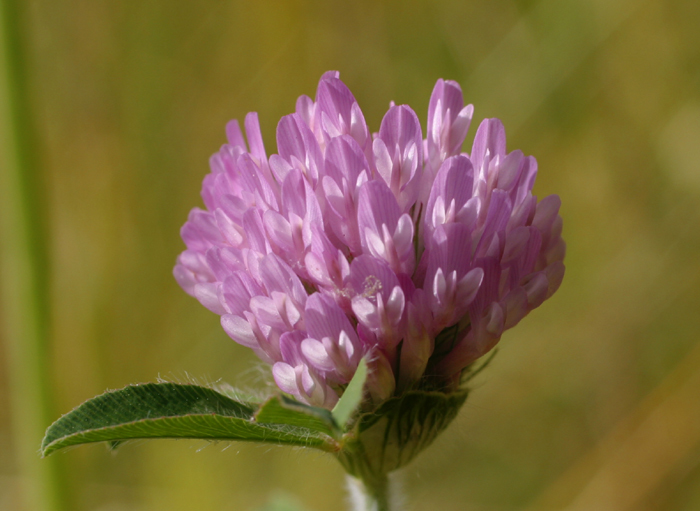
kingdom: Plantae
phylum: Tracheophyta
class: Magnoliopsida
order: Fabales
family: Fabaceae
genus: Trifolium
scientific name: Trifolium pratense
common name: Red clover
